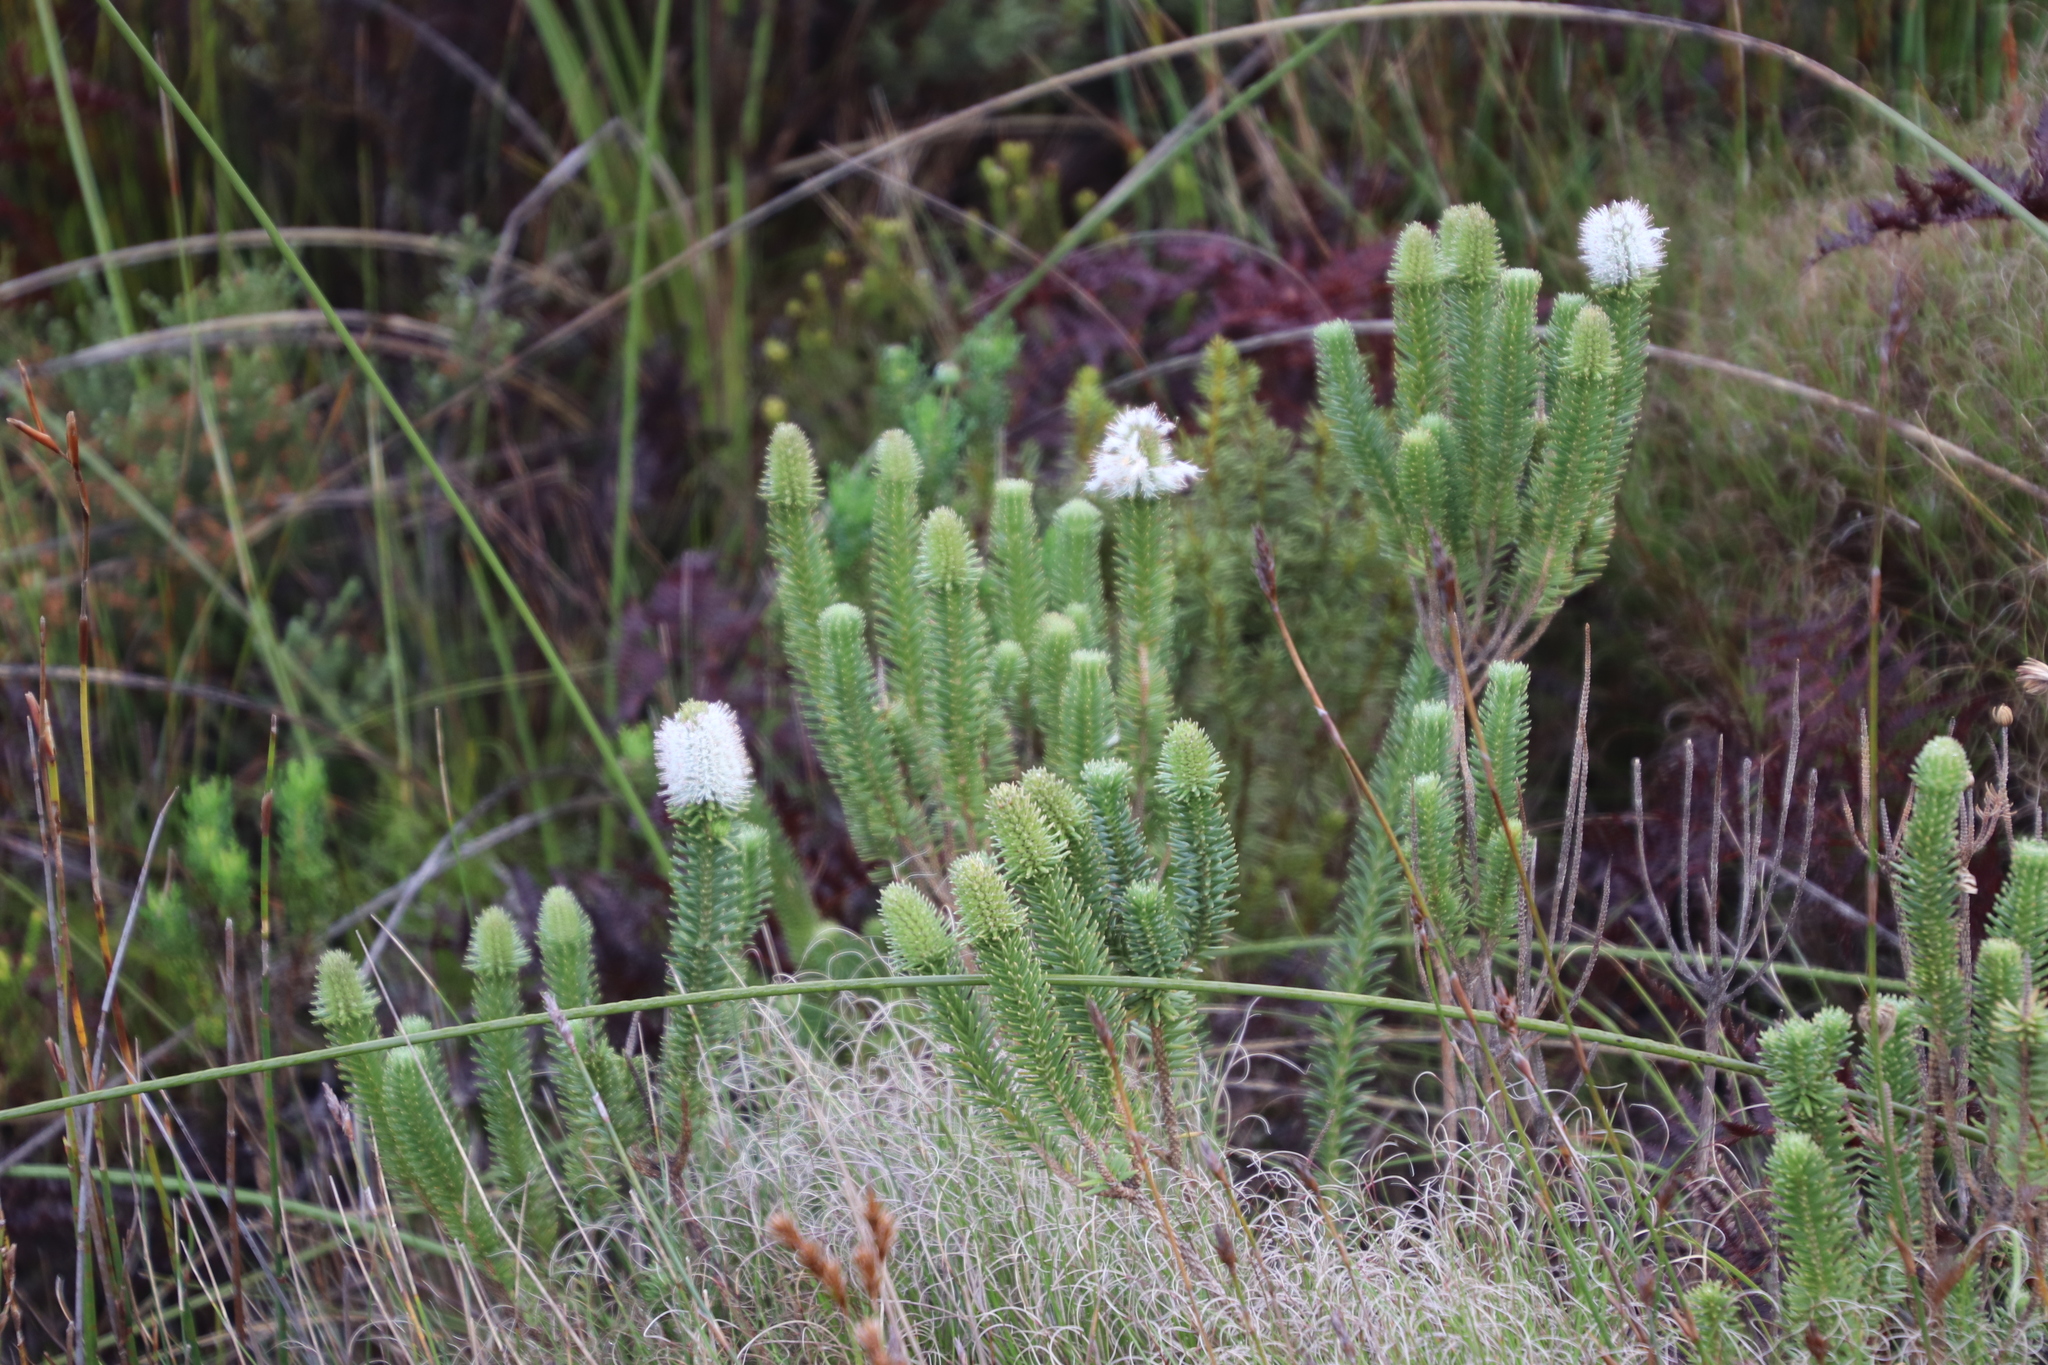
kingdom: Plantae
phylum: Tracheophyta
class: Magnoliopsida
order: Lamiales
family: Stilbaceae
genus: Stilbe
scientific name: Stilbe vestita
